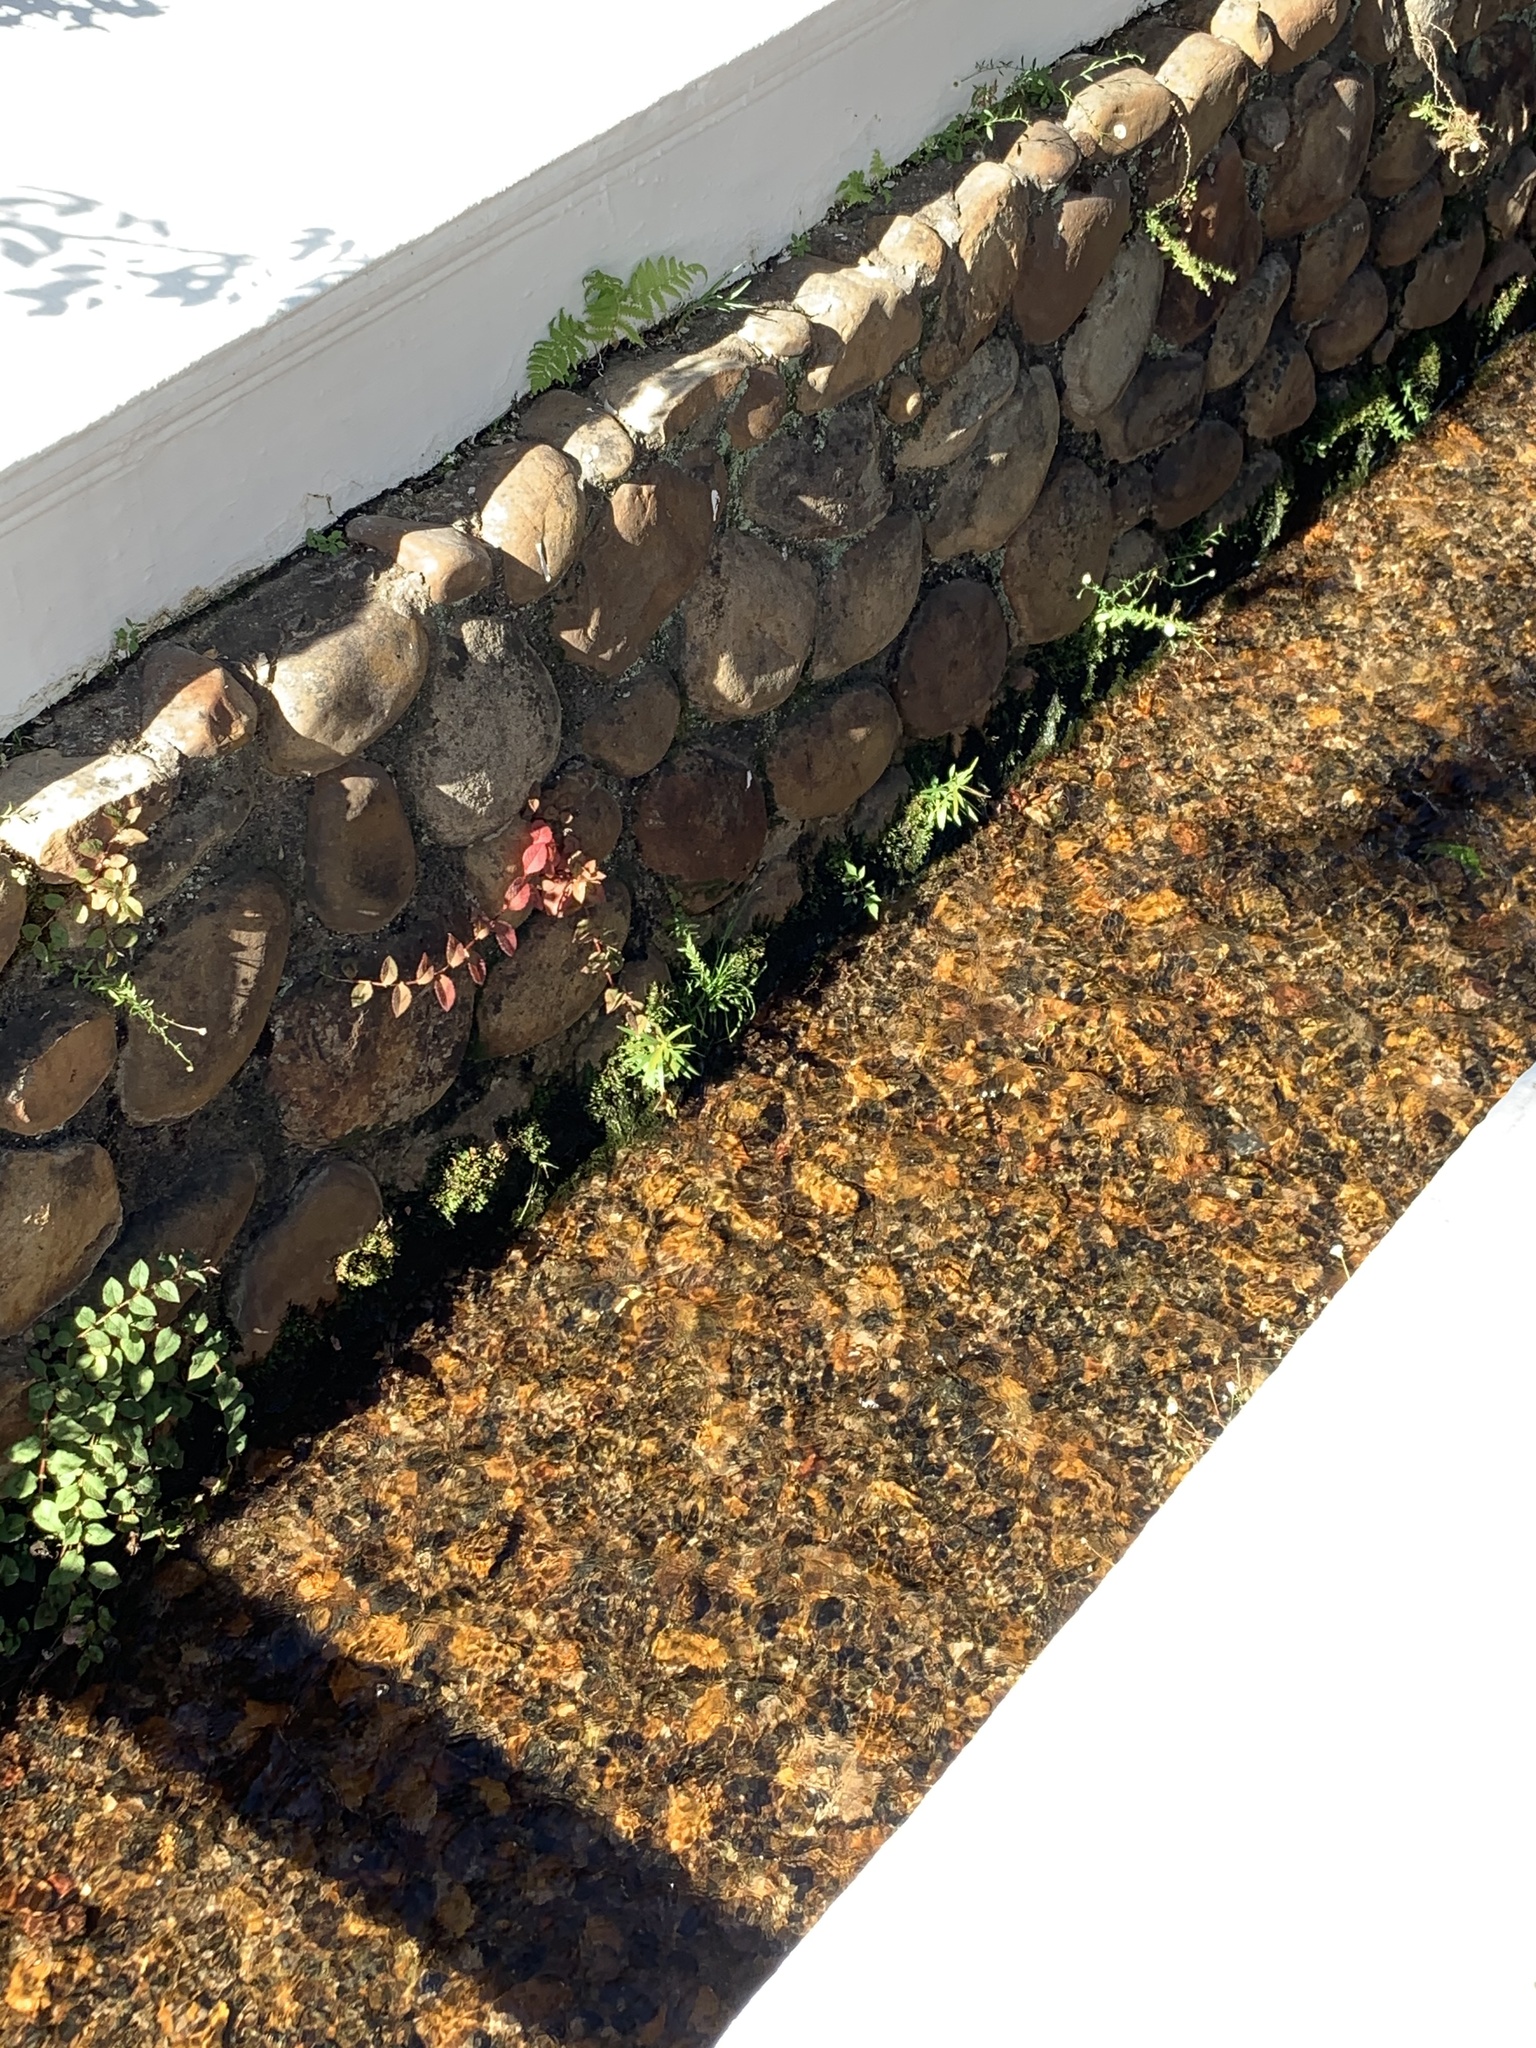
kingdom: Plantae
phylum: Tracheophyta
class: Magnoliopsida
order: Myrtales
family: Myrtaceae
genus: Callistemon
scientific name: Callistemon viminalis
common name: Drooping bottlebrush
